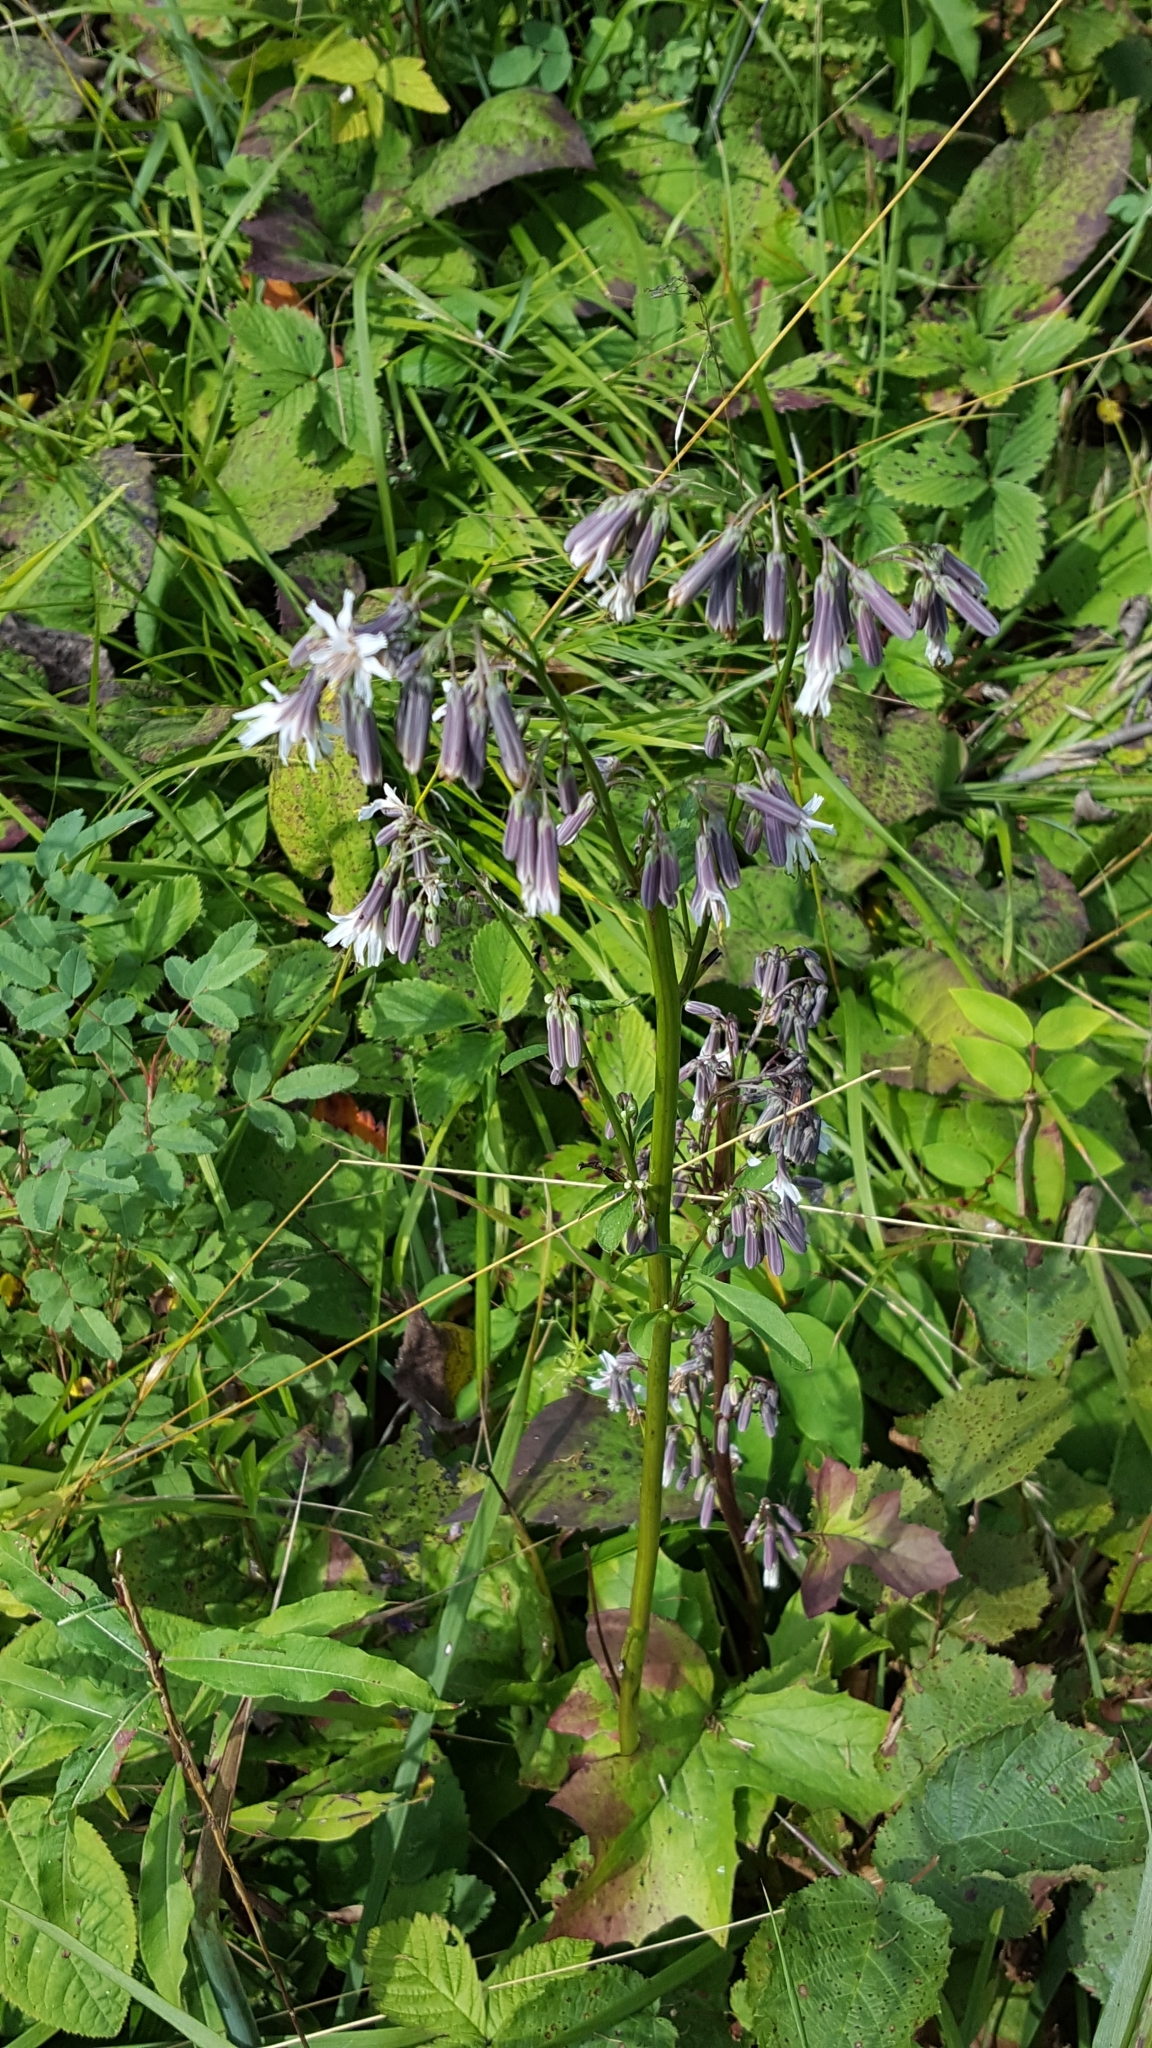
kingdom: Plantae
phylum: Tracheophyta
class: Magnoliopsida
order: Asterales
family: Asteraceae
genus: Nabalus
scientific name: Nabalus albus
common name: White rattlesnakeroot
